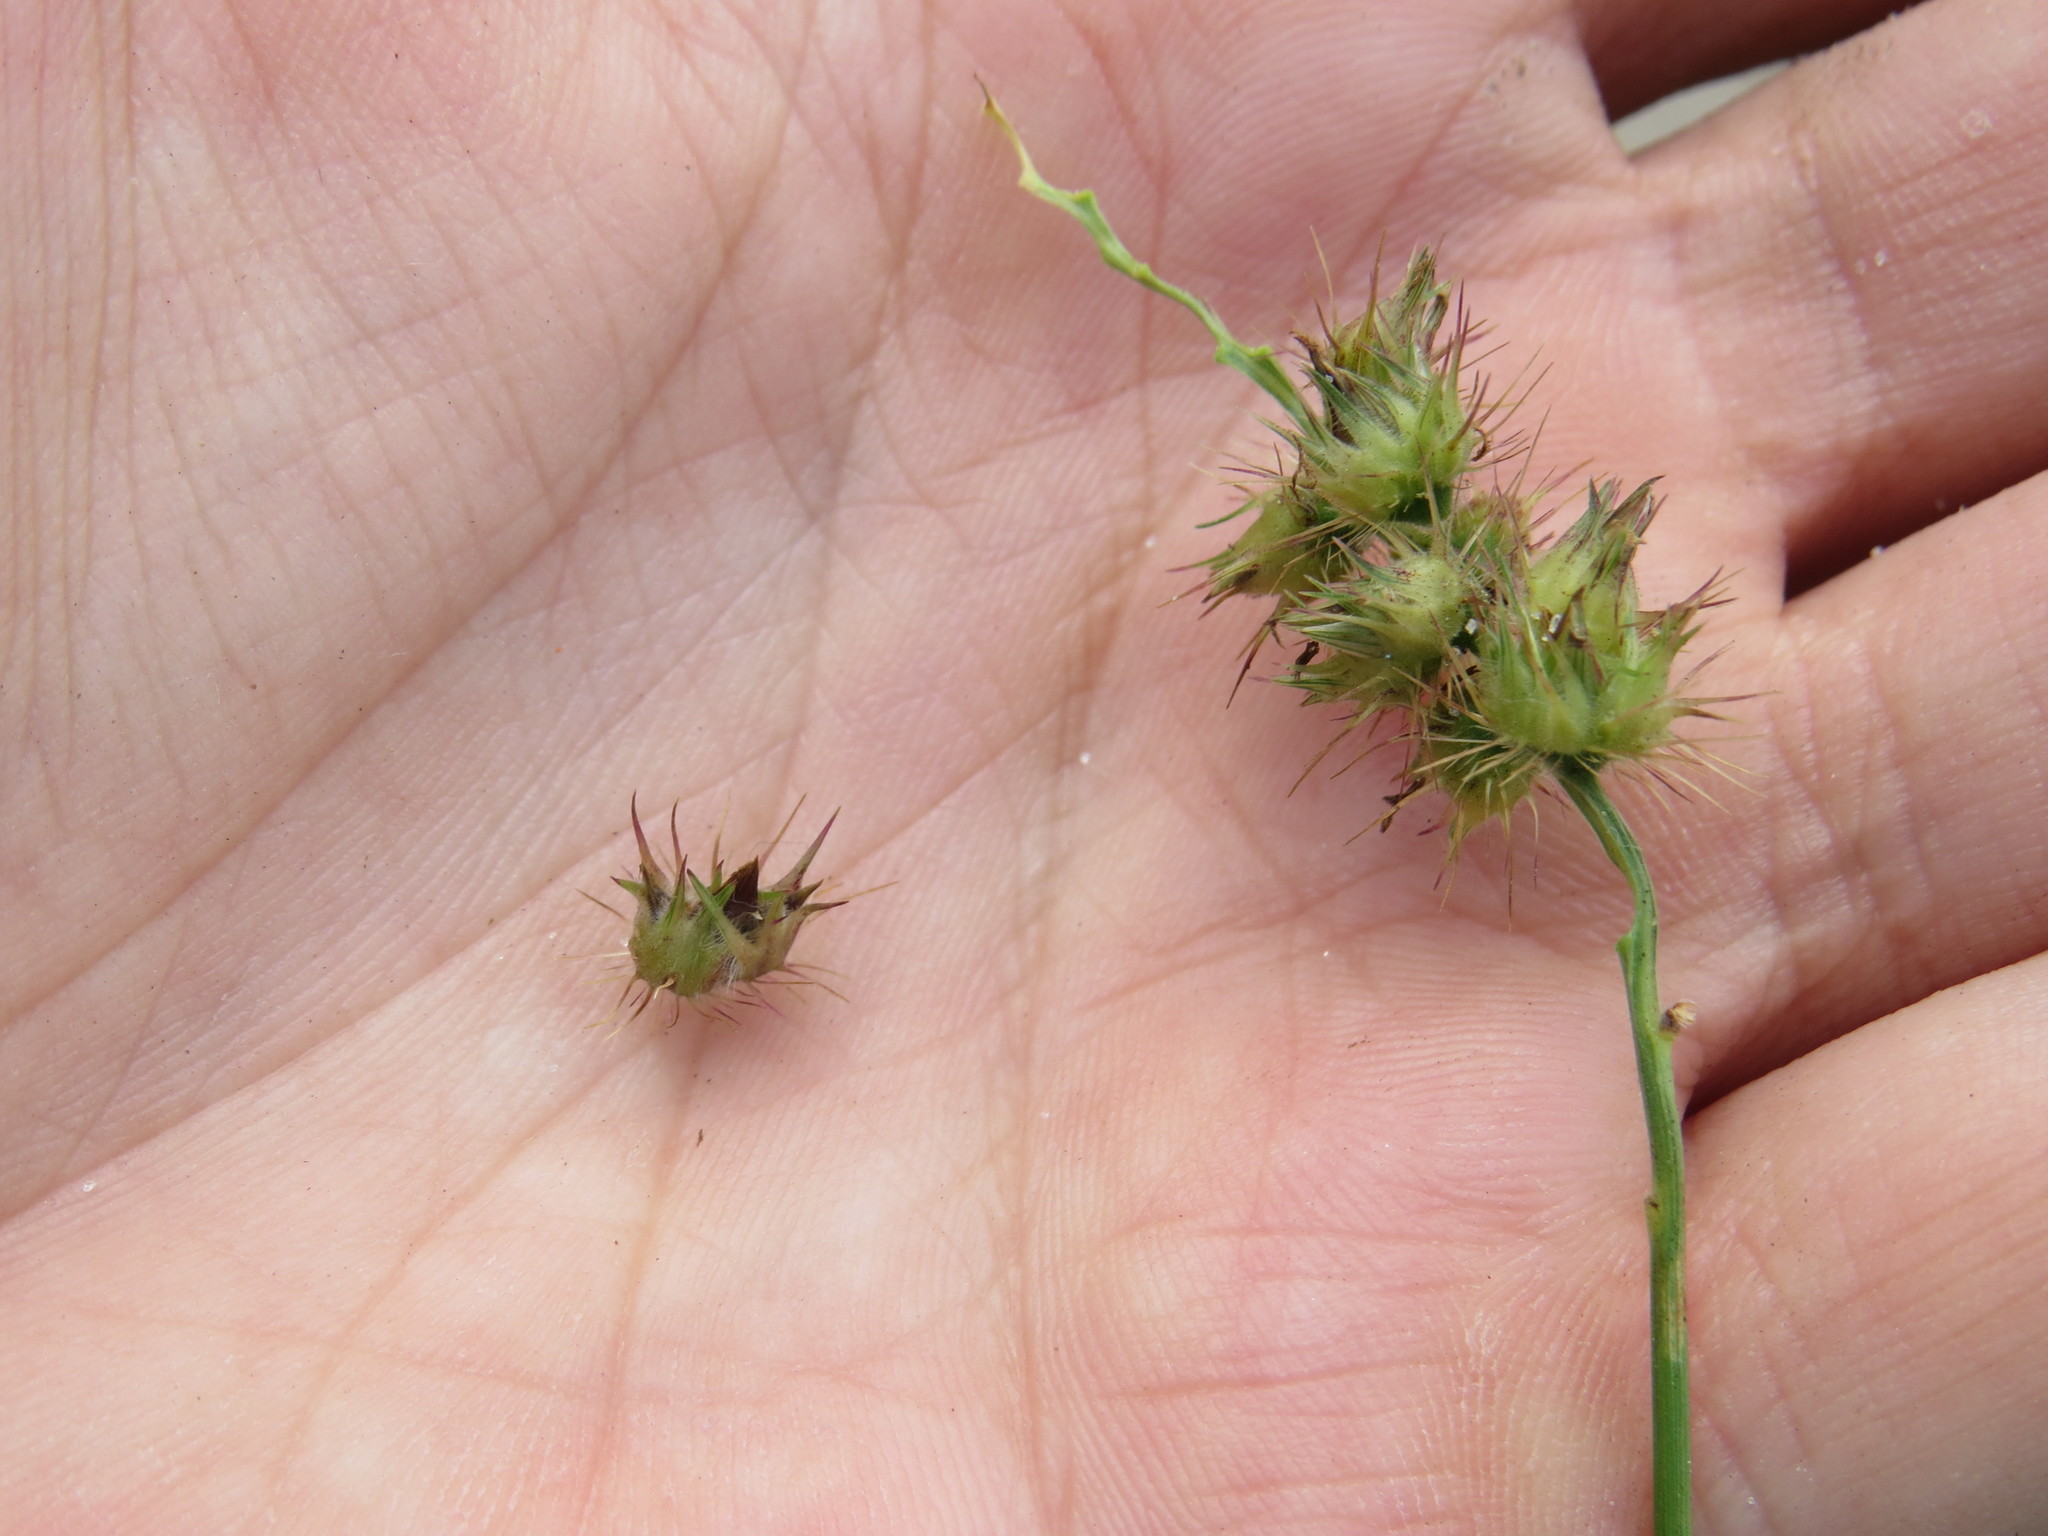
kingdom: Plantae
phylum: Tracheophyta
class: Liliopsida
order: Poales
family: Poaceae
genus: Cenchrus
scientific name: Cenchrus echinatus
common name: Southern sandbur
